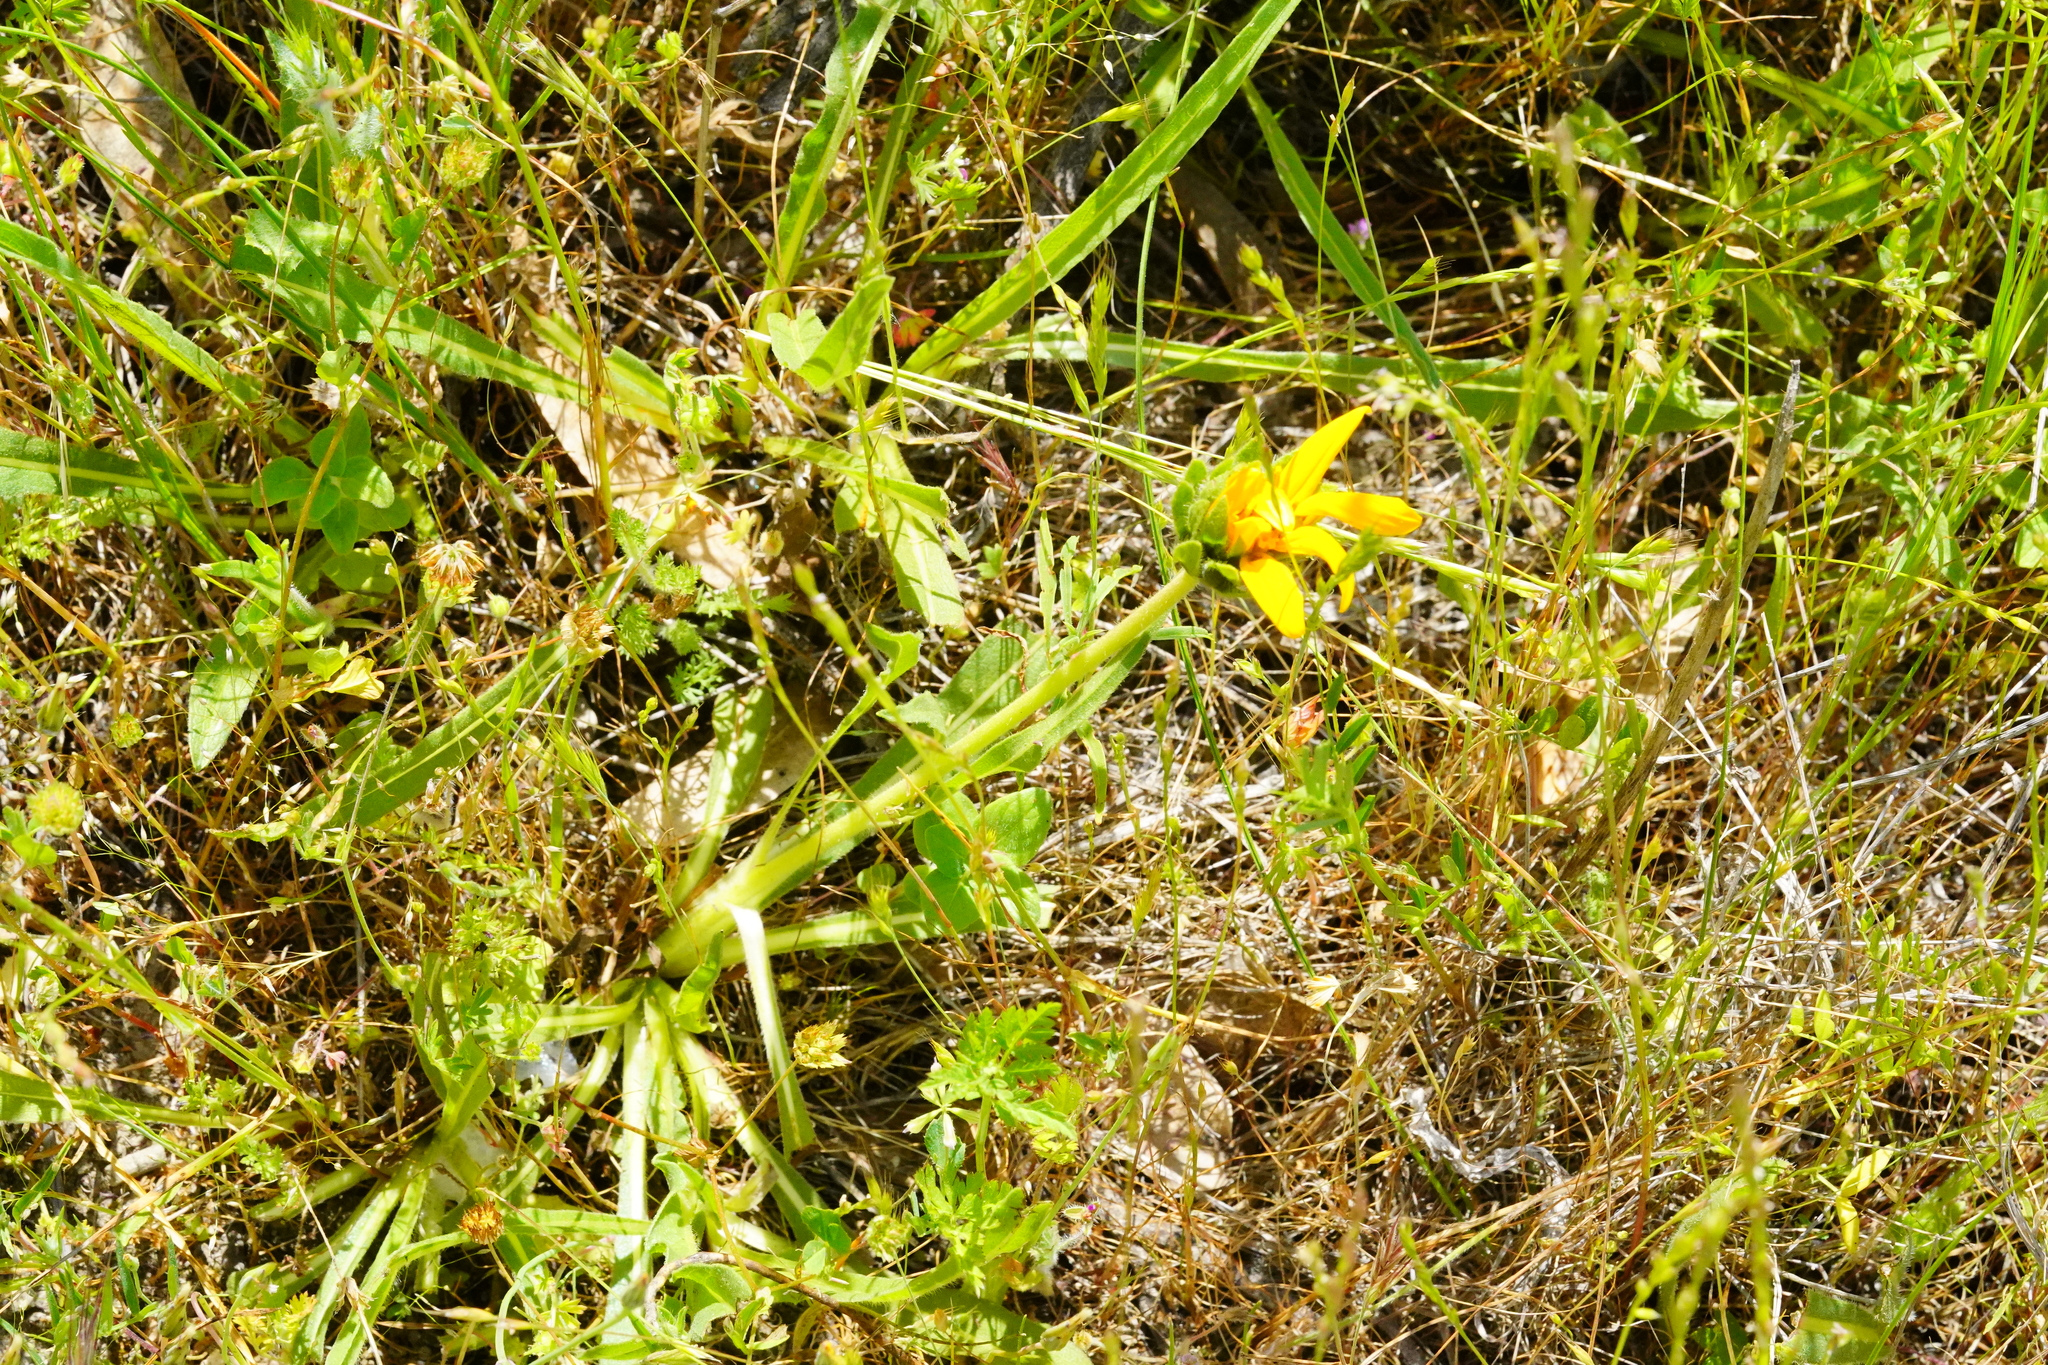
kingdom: Plantae
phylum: Tracheophyta
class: Magnoliopsida
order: Asterales
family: Asteraceae
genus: Wyethia
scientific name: Wyethia angustifolia
